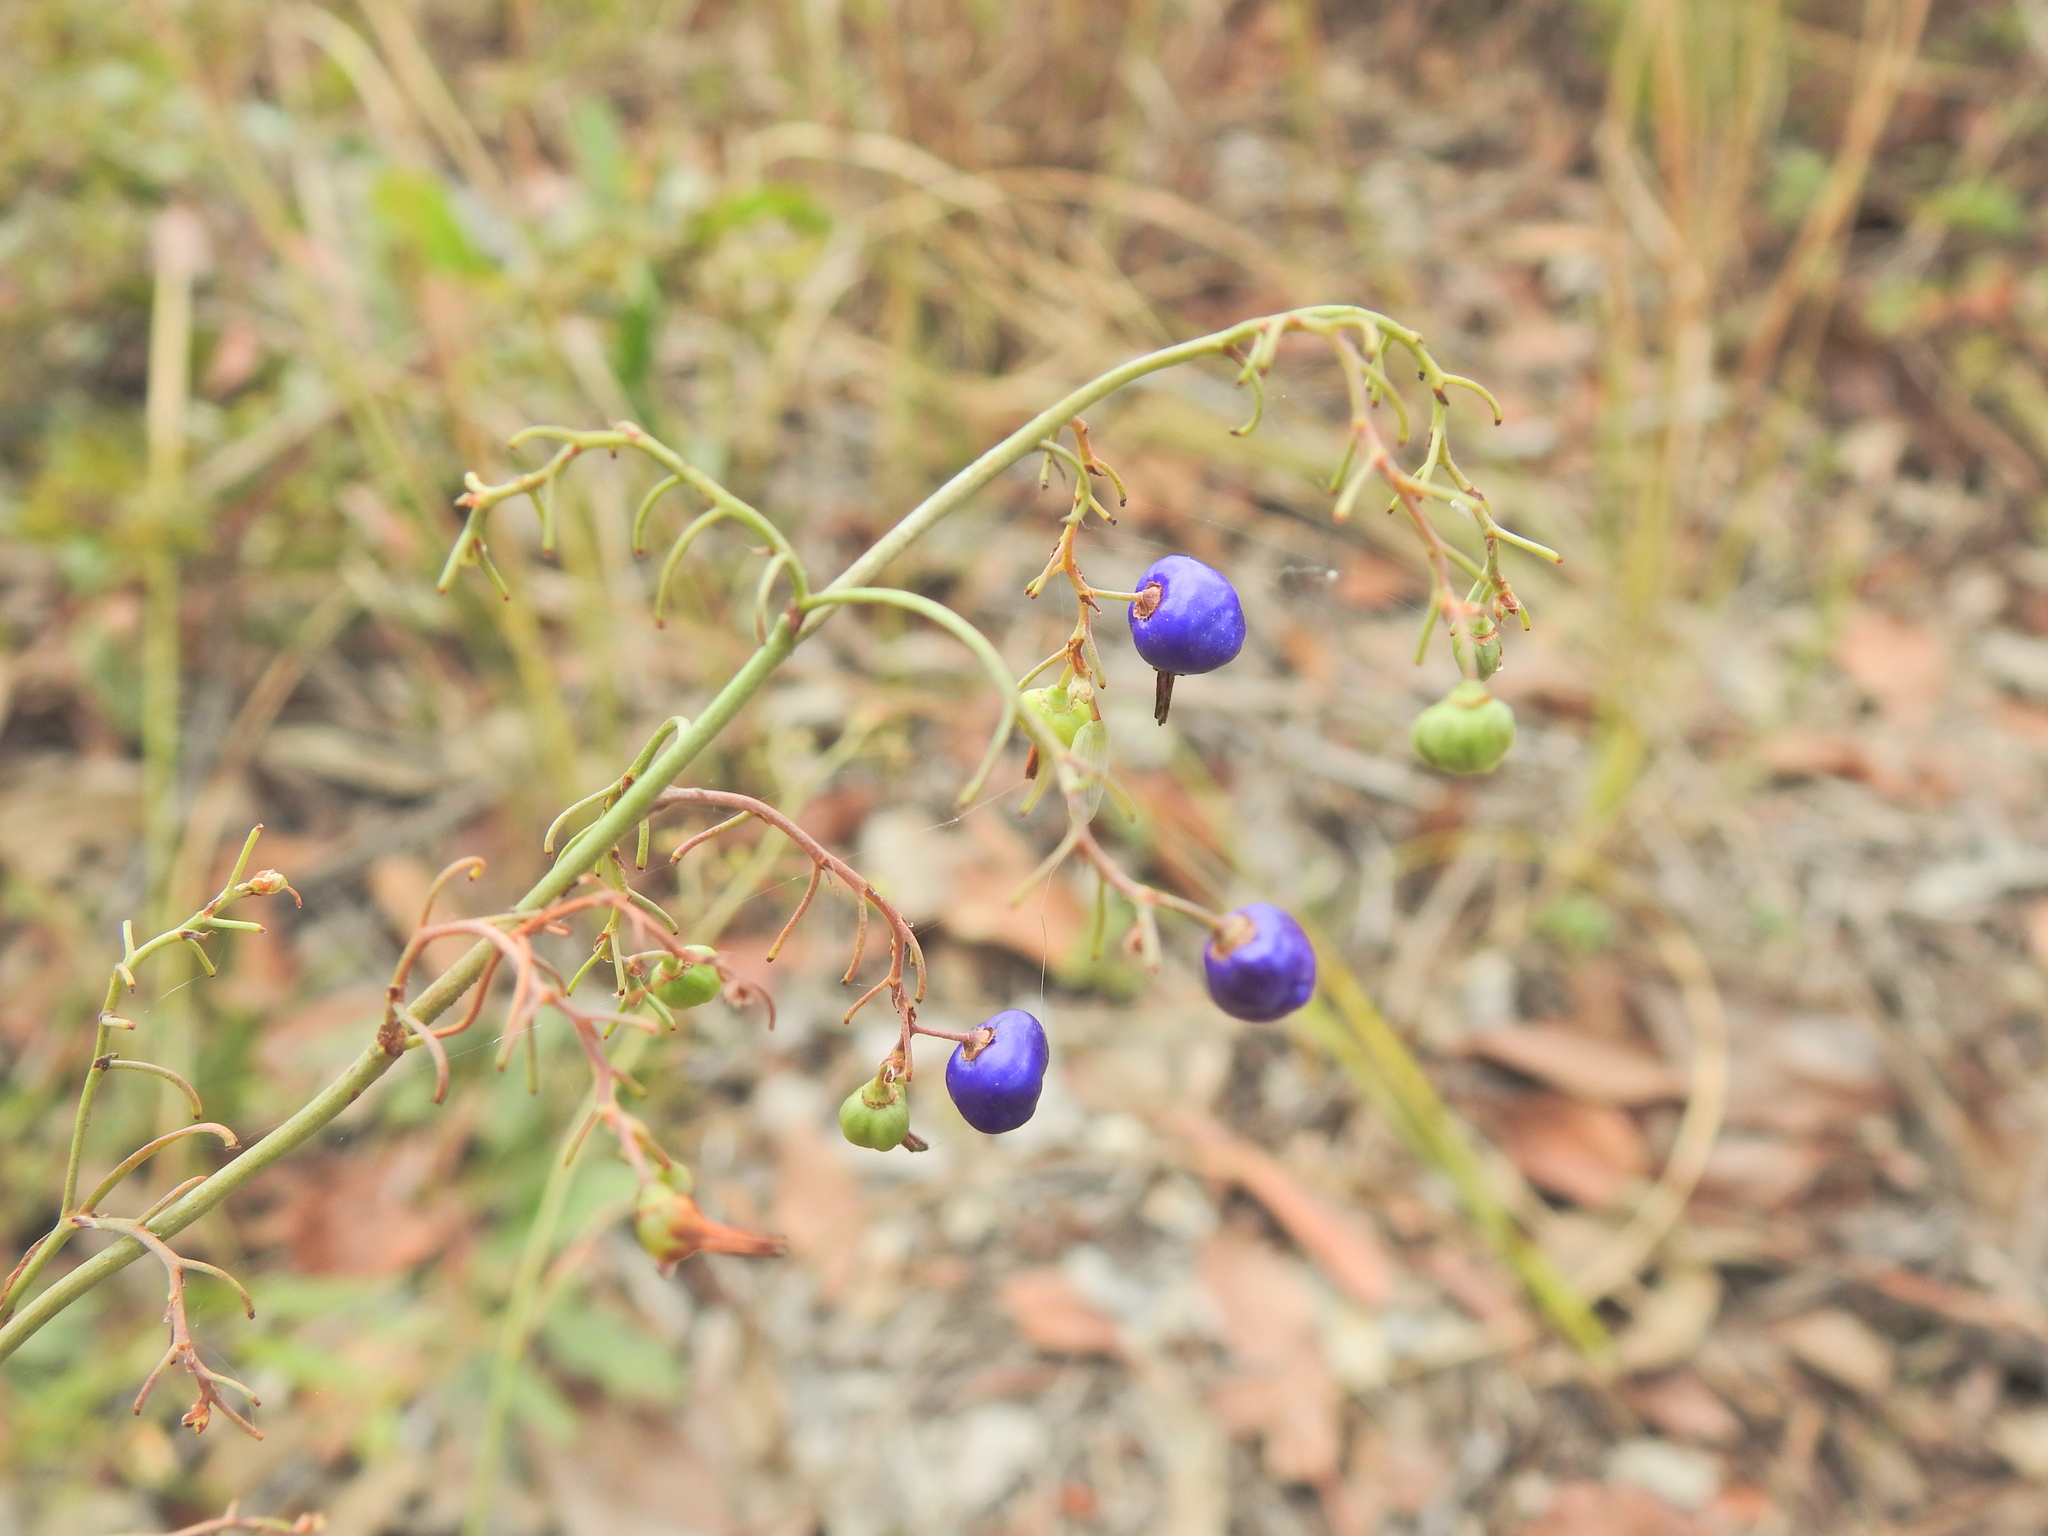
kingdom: Plantae
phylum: Tracheophyta
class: Liliopsida
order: Asparagales
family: Asphodelaceae
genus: Dianella
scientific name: Dianella longifolia
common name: Blue flax-lily
